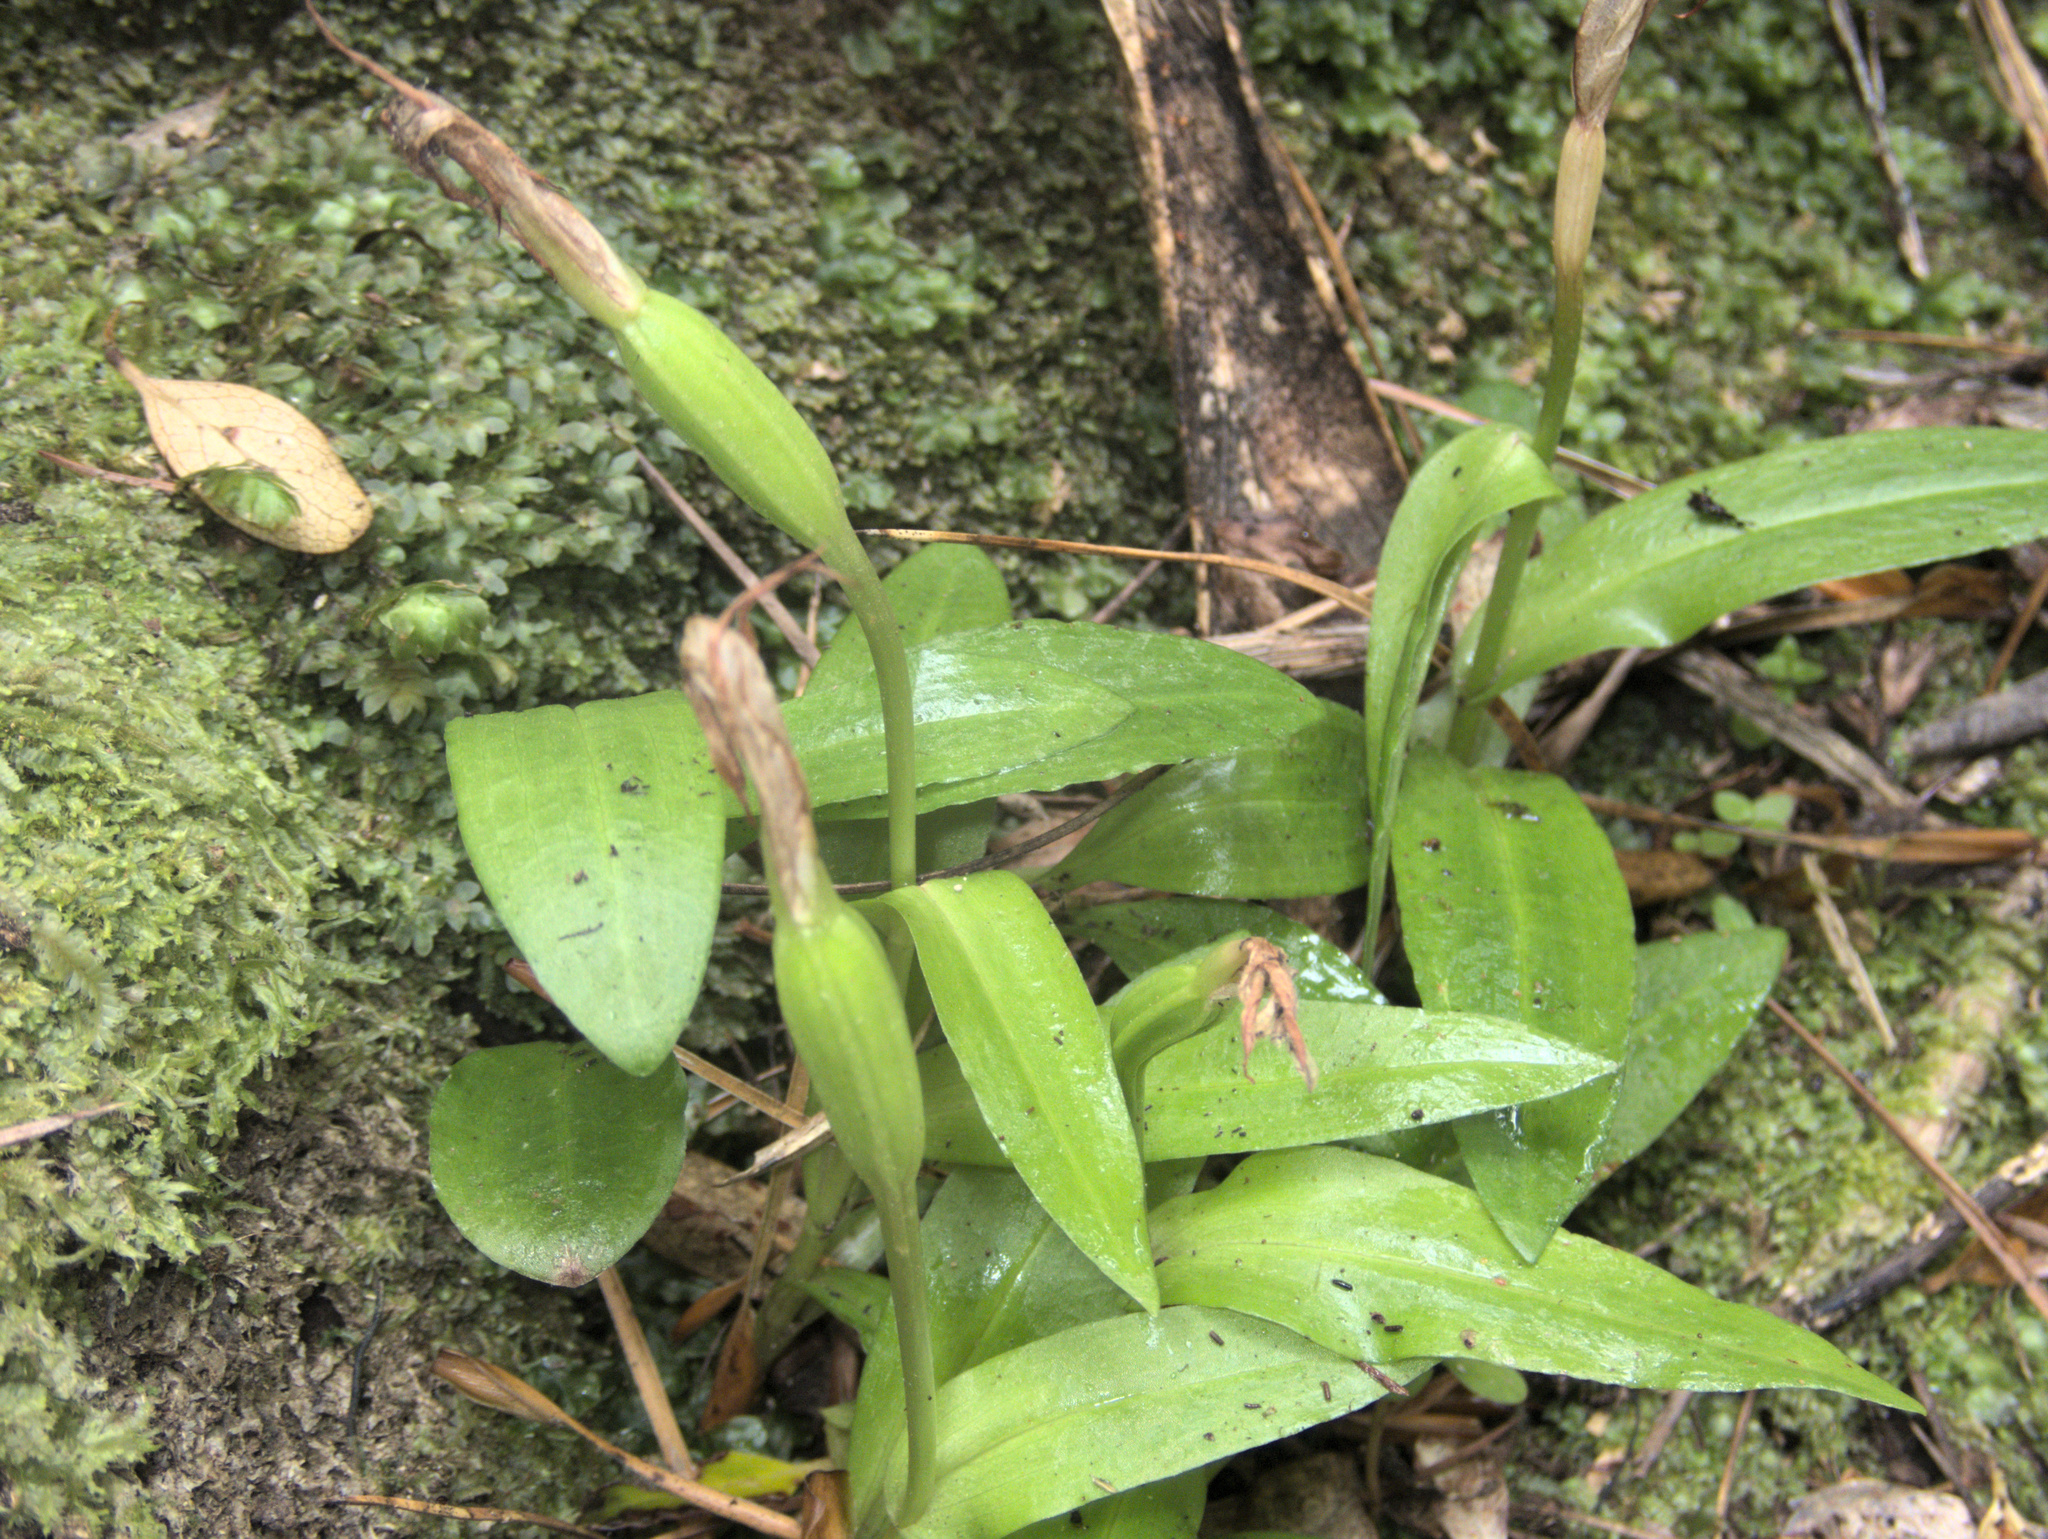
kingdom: Plantae
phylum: Tracheophyta
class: Liliopsida
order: Asparagales
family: Orchidaceae
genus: Pterostylis
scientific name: Pterostylis silvicultrix
